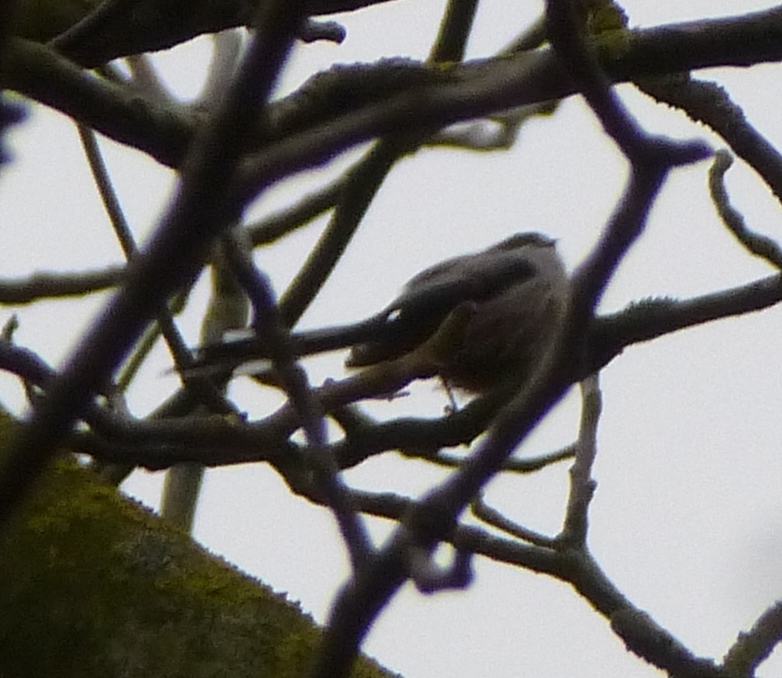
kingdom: Animalia
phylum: Chordata
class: Aves
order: Passeriformes
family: Aegithalidae
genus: Aegithalos
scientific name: Aegithalos caudatus
